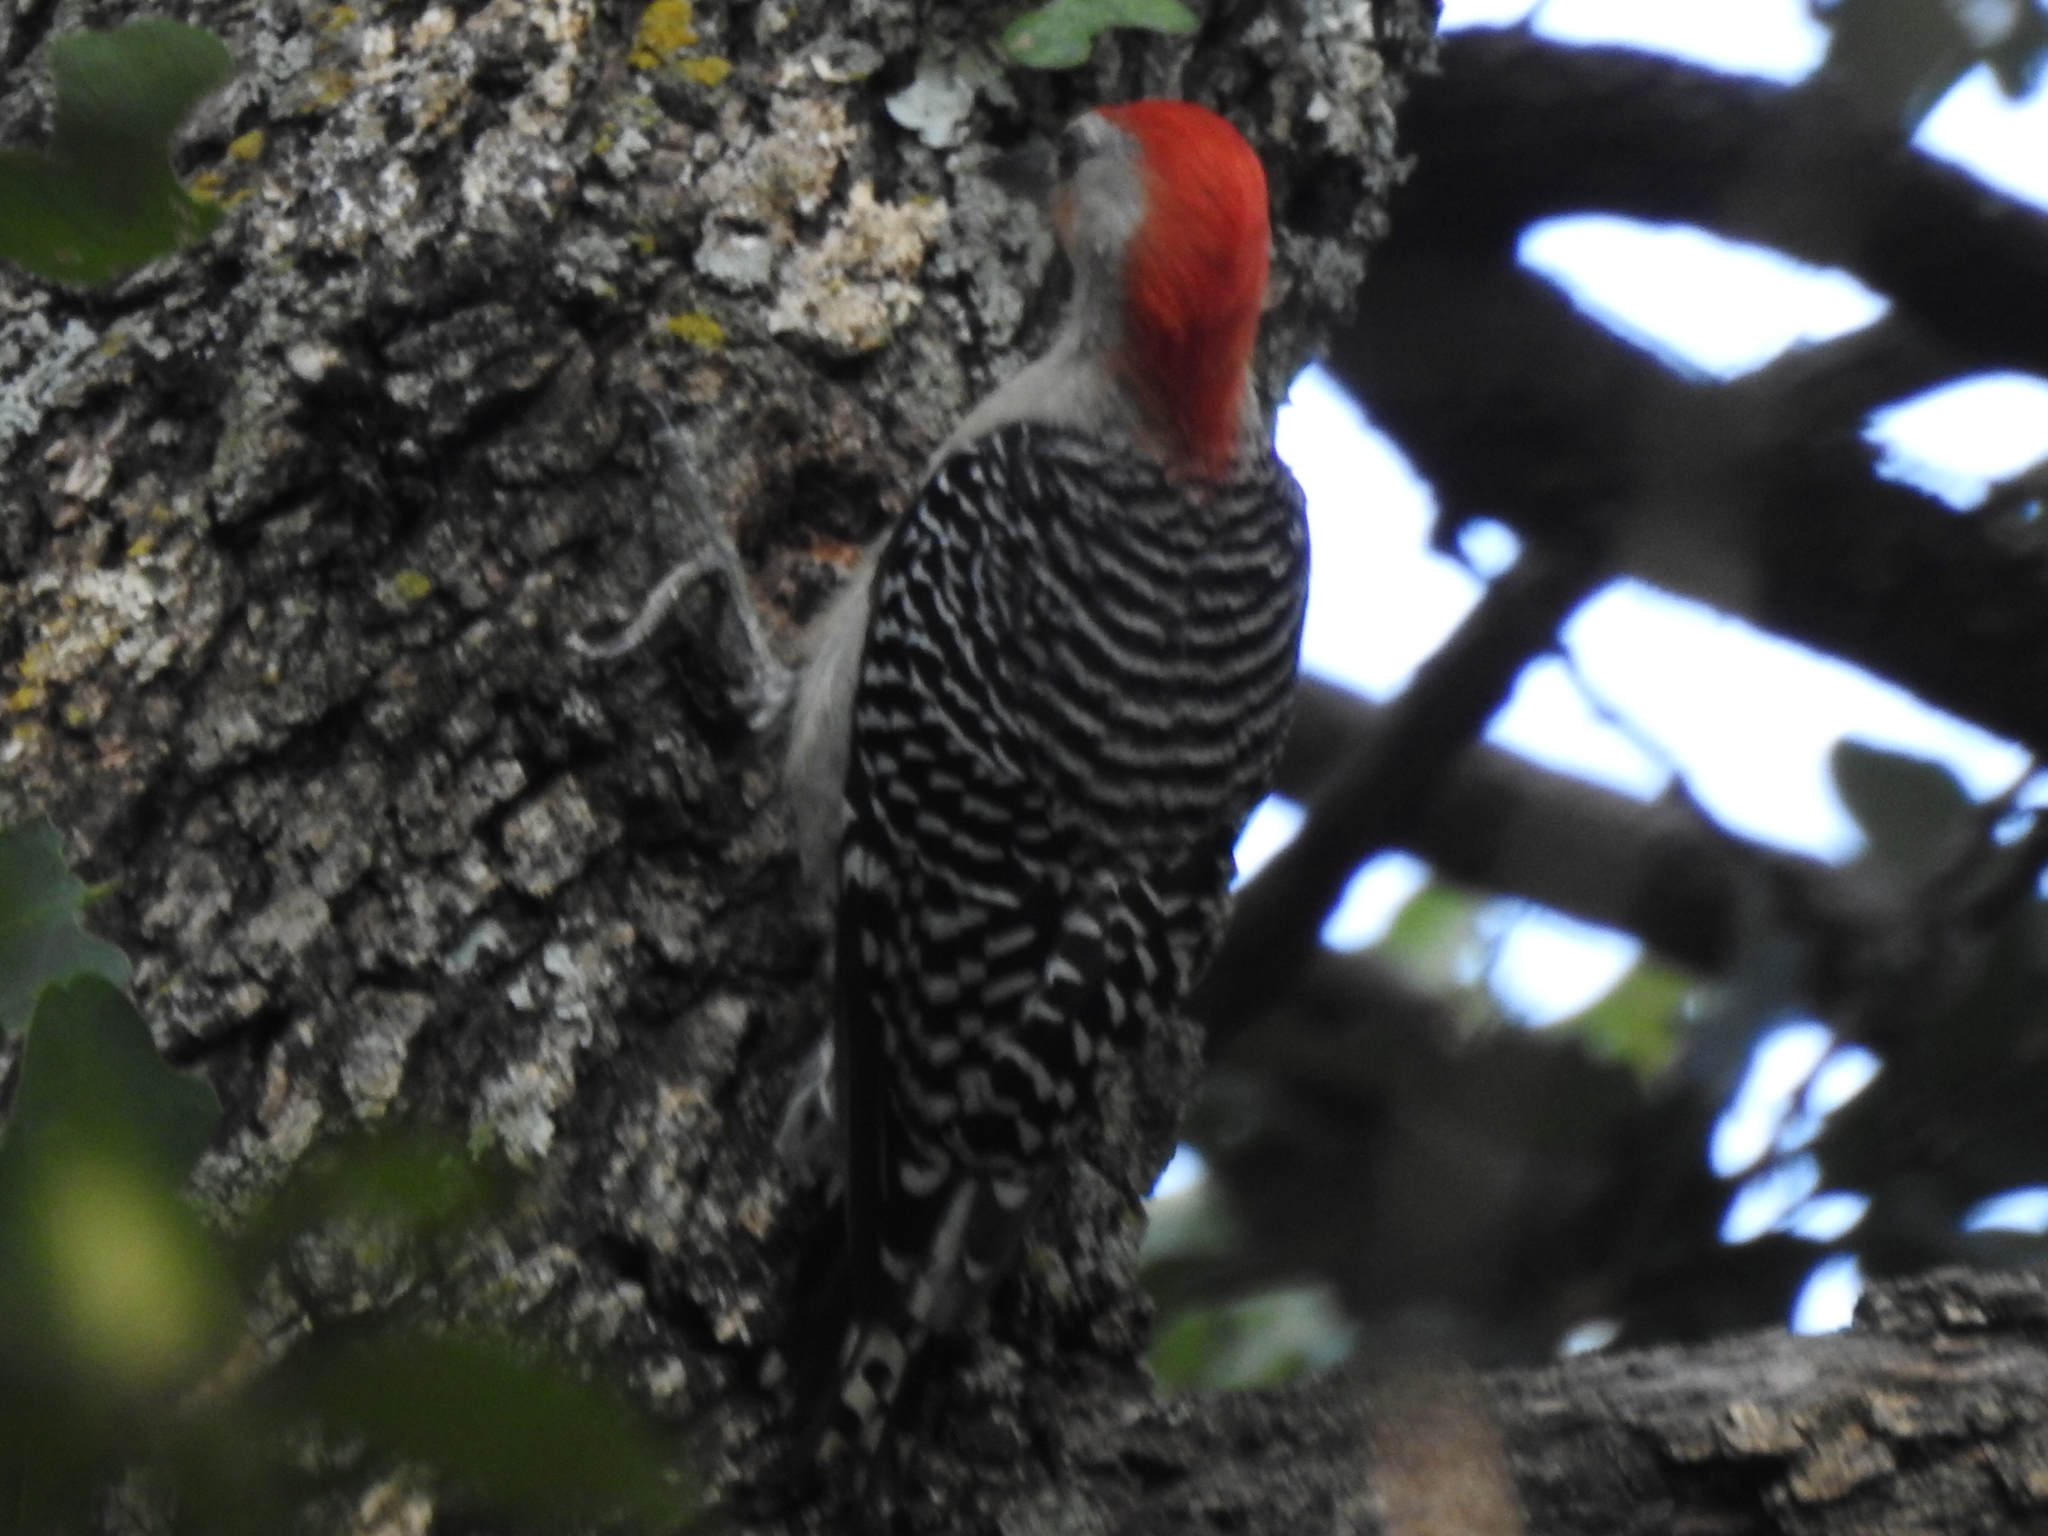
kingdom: Animalia
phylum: Chordata
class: Aves
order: Piciformes
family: Picidae
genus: Melanerpes
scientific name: Melanerpes carolinus
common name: Red-bellied woodpecker
